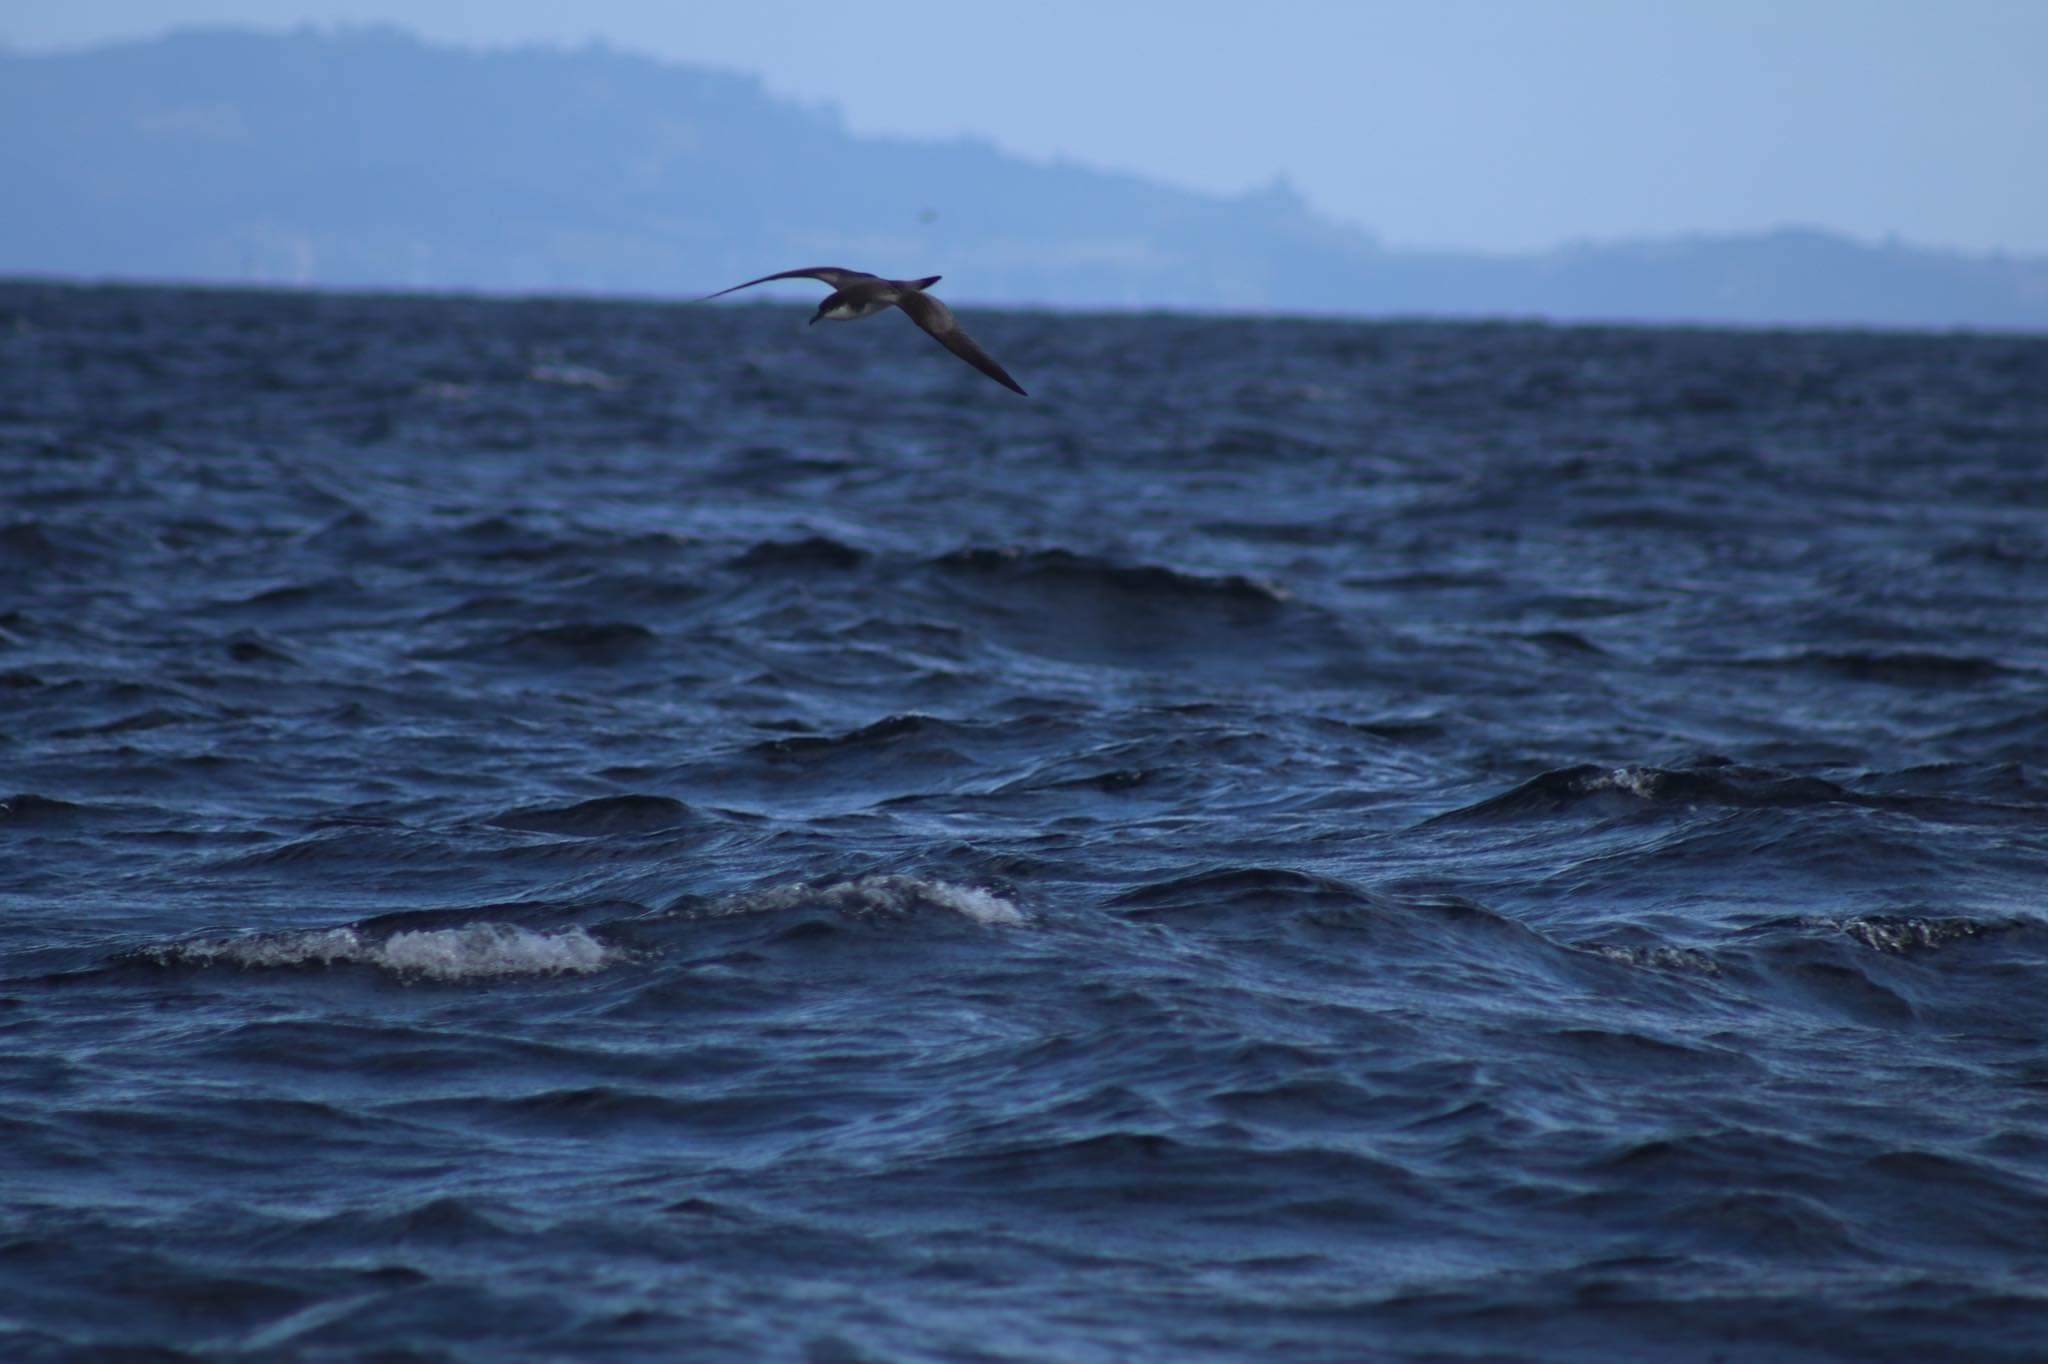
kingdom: Animalia
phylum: Chordata
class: Aves
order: Procellariiformes
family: Procellariidae
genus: Puffinus
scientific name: Puffinus bulleri
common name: Buller's shearwater
